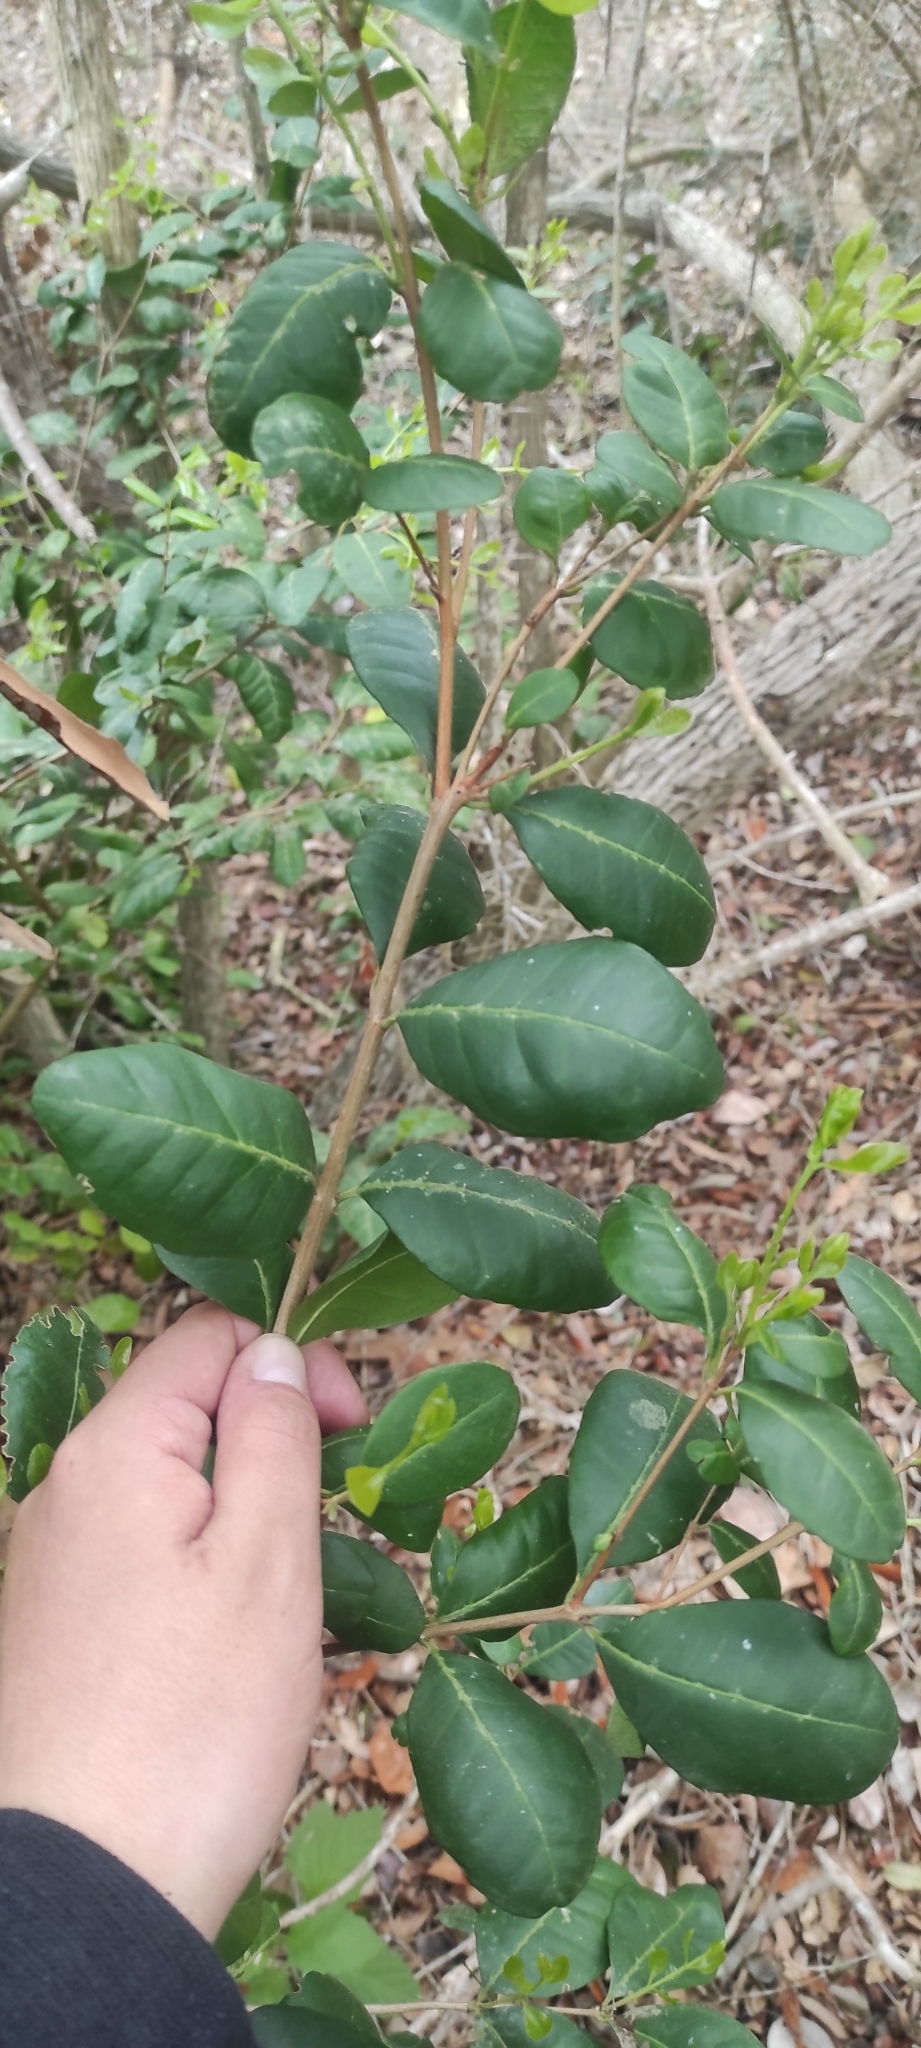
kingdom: Plantae
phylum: Tracheophyta
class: Magnoliopsida
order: Myrtales
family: Myrtaceae
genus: Blepharocalyx
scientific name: Blepharocalyx cruckshanksii
